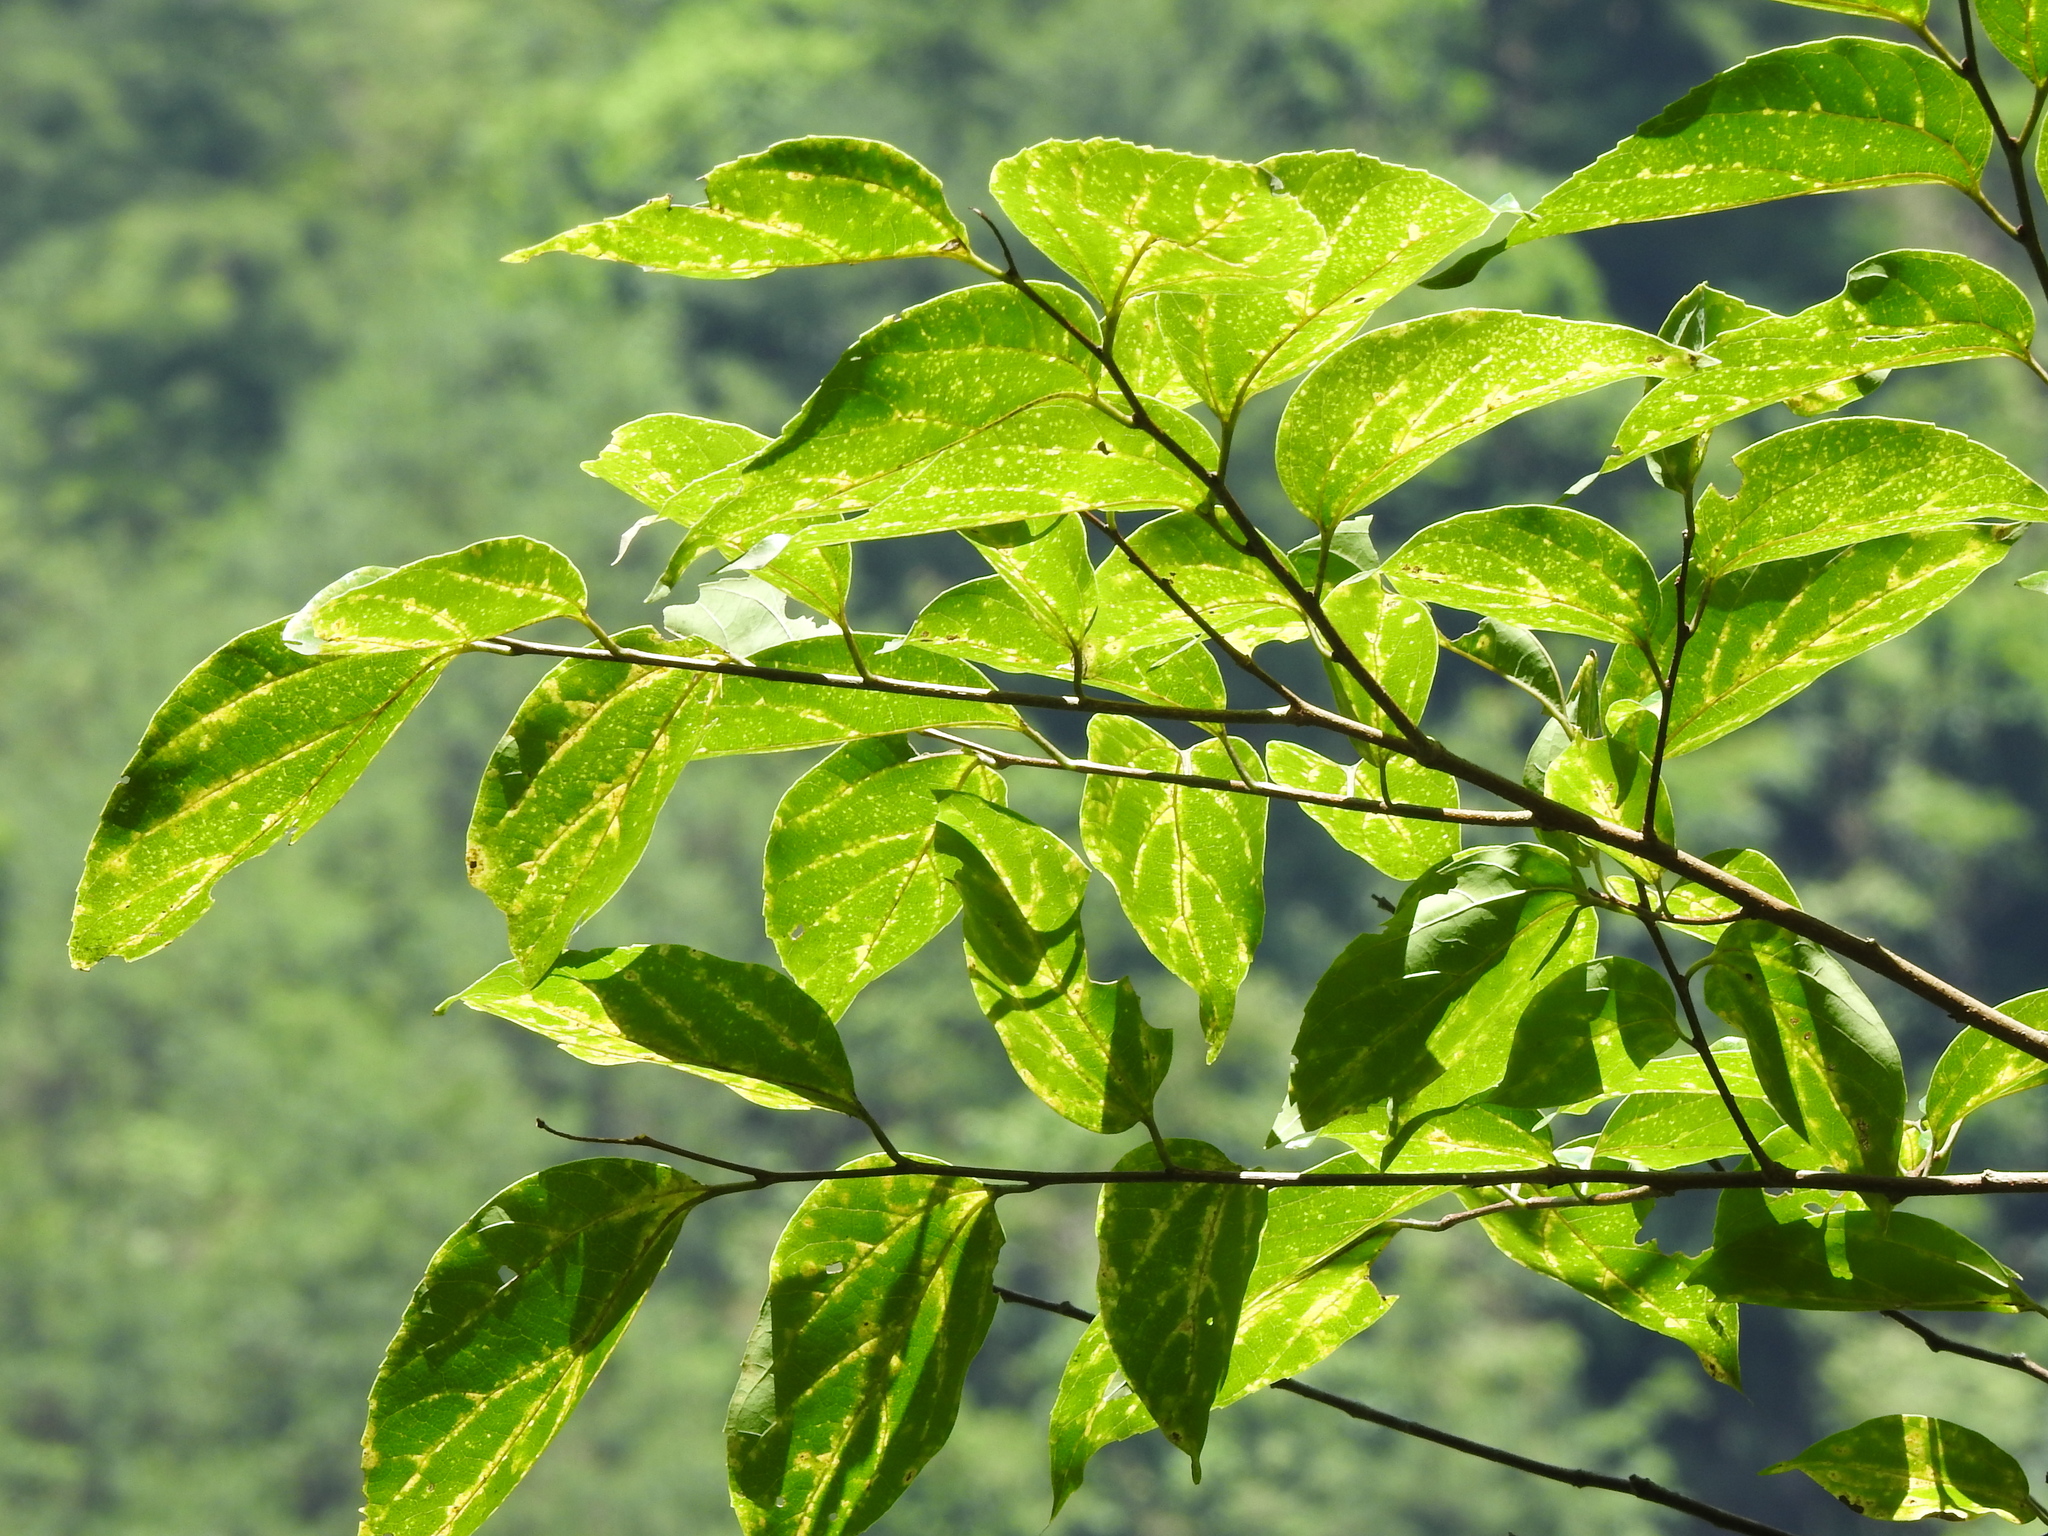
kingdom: Plantae
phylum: Tracheophyta
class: Magnoliopsida
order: Rosales
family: Cannabaceae
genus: Celtis
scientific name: Celtis tetrandra
